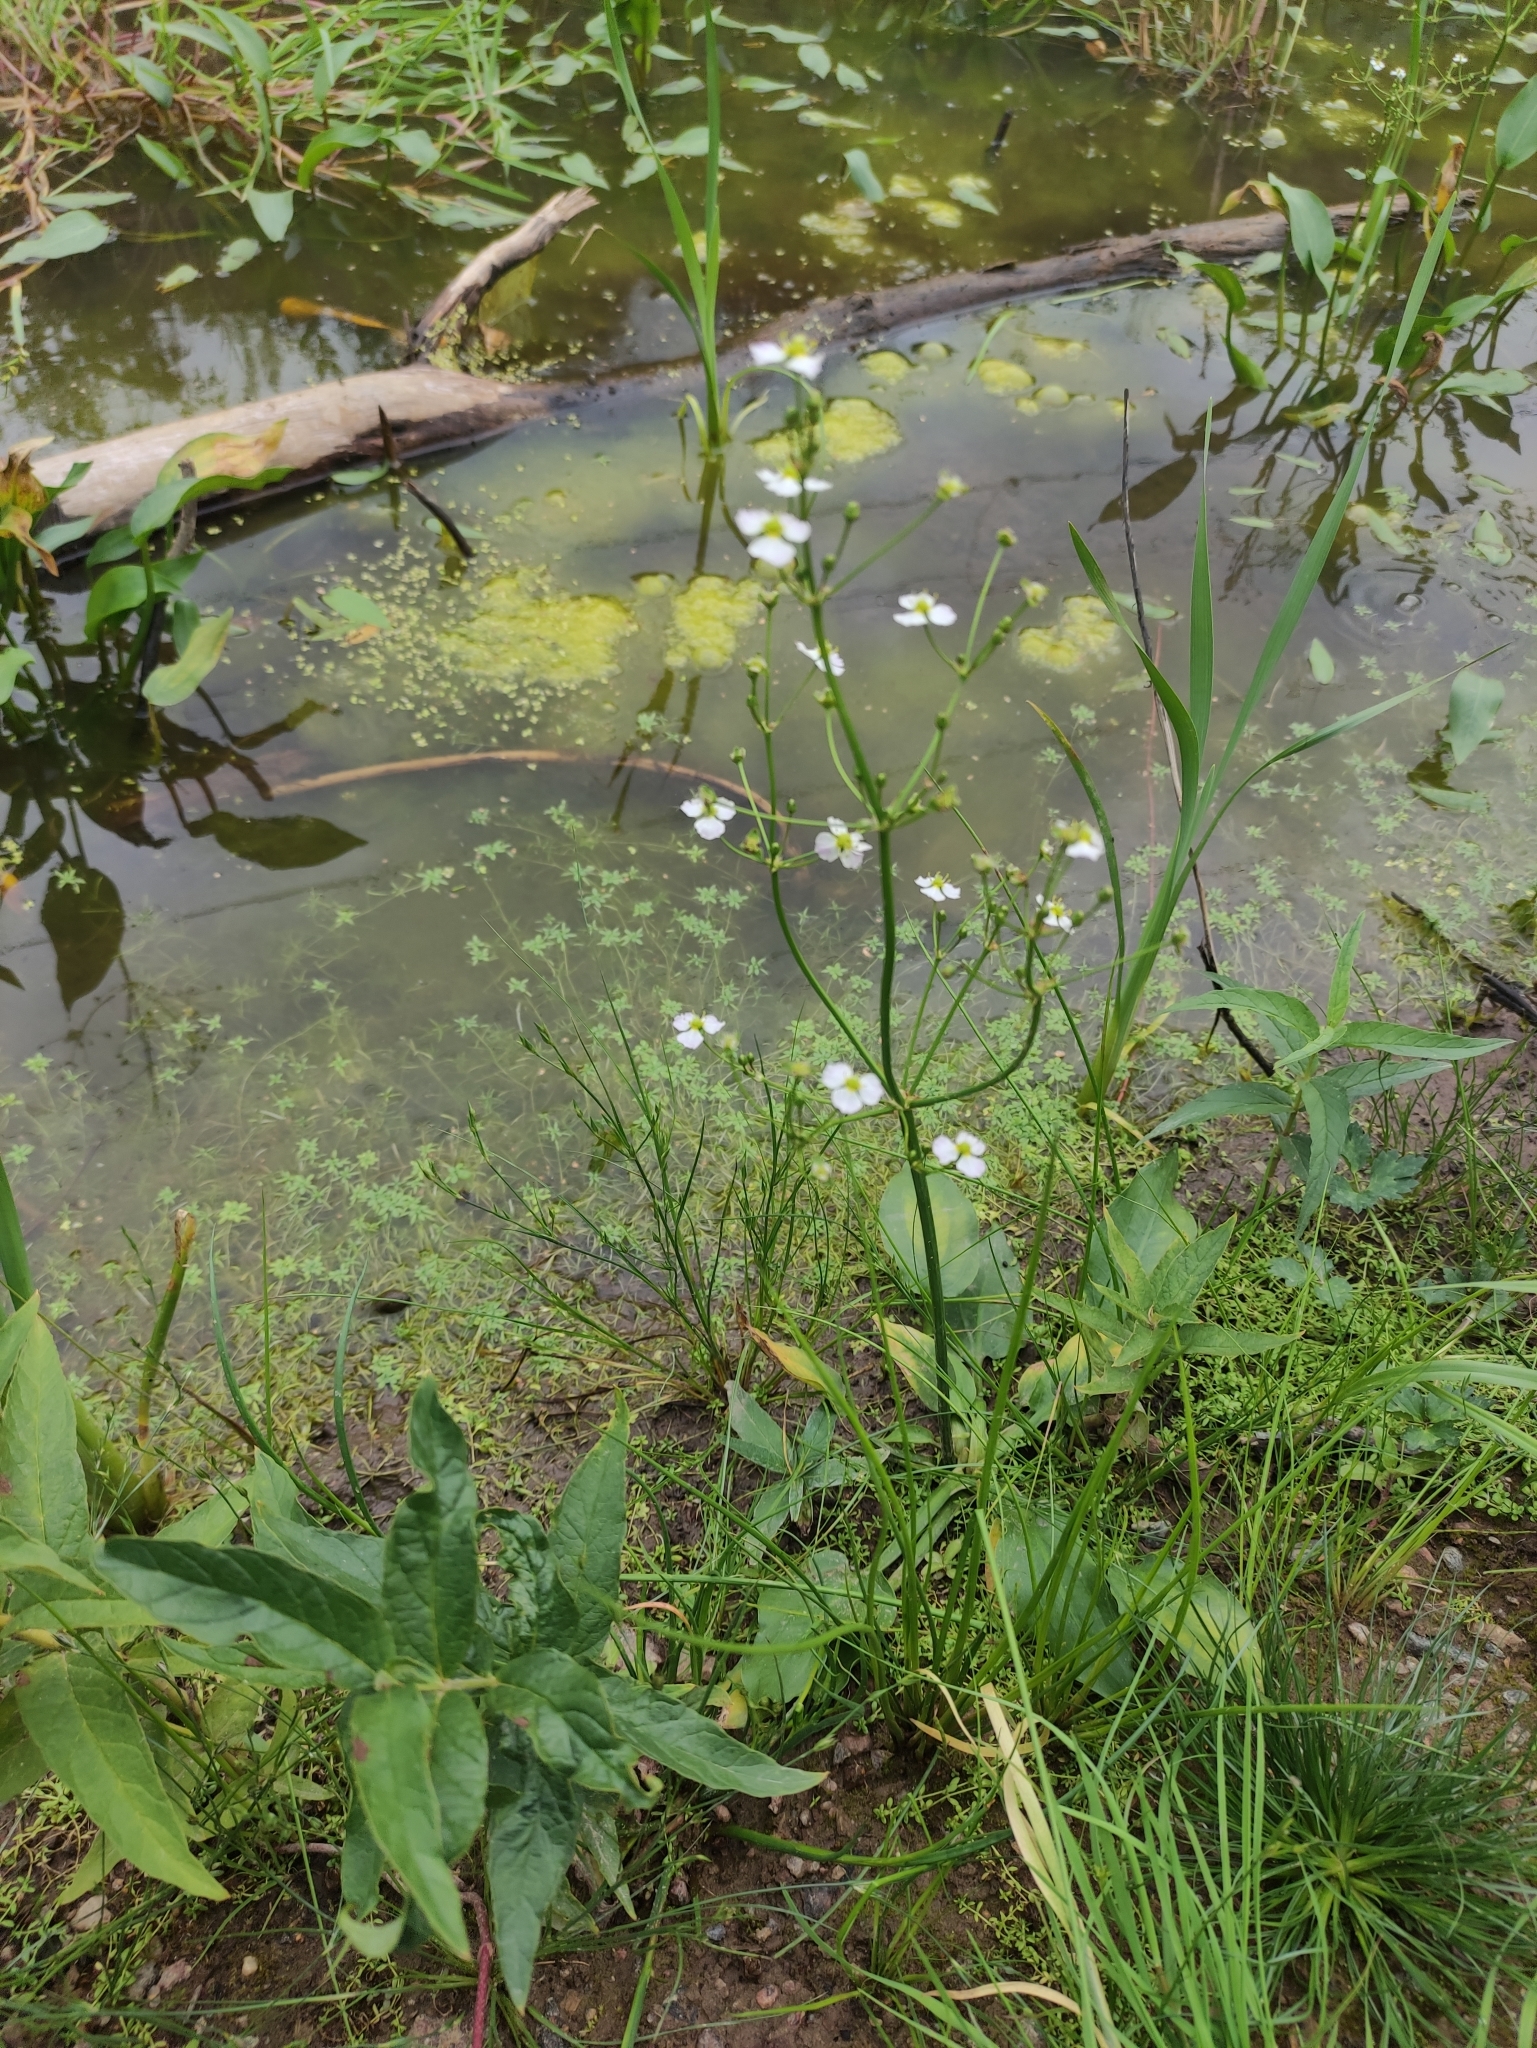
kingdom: Plantae
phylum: Tracheophyta
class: Liliopsida
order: Alismatales
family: Alismataceae
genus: Alisma
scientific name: Alisma plantago-aquatica
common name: Water-plantain
